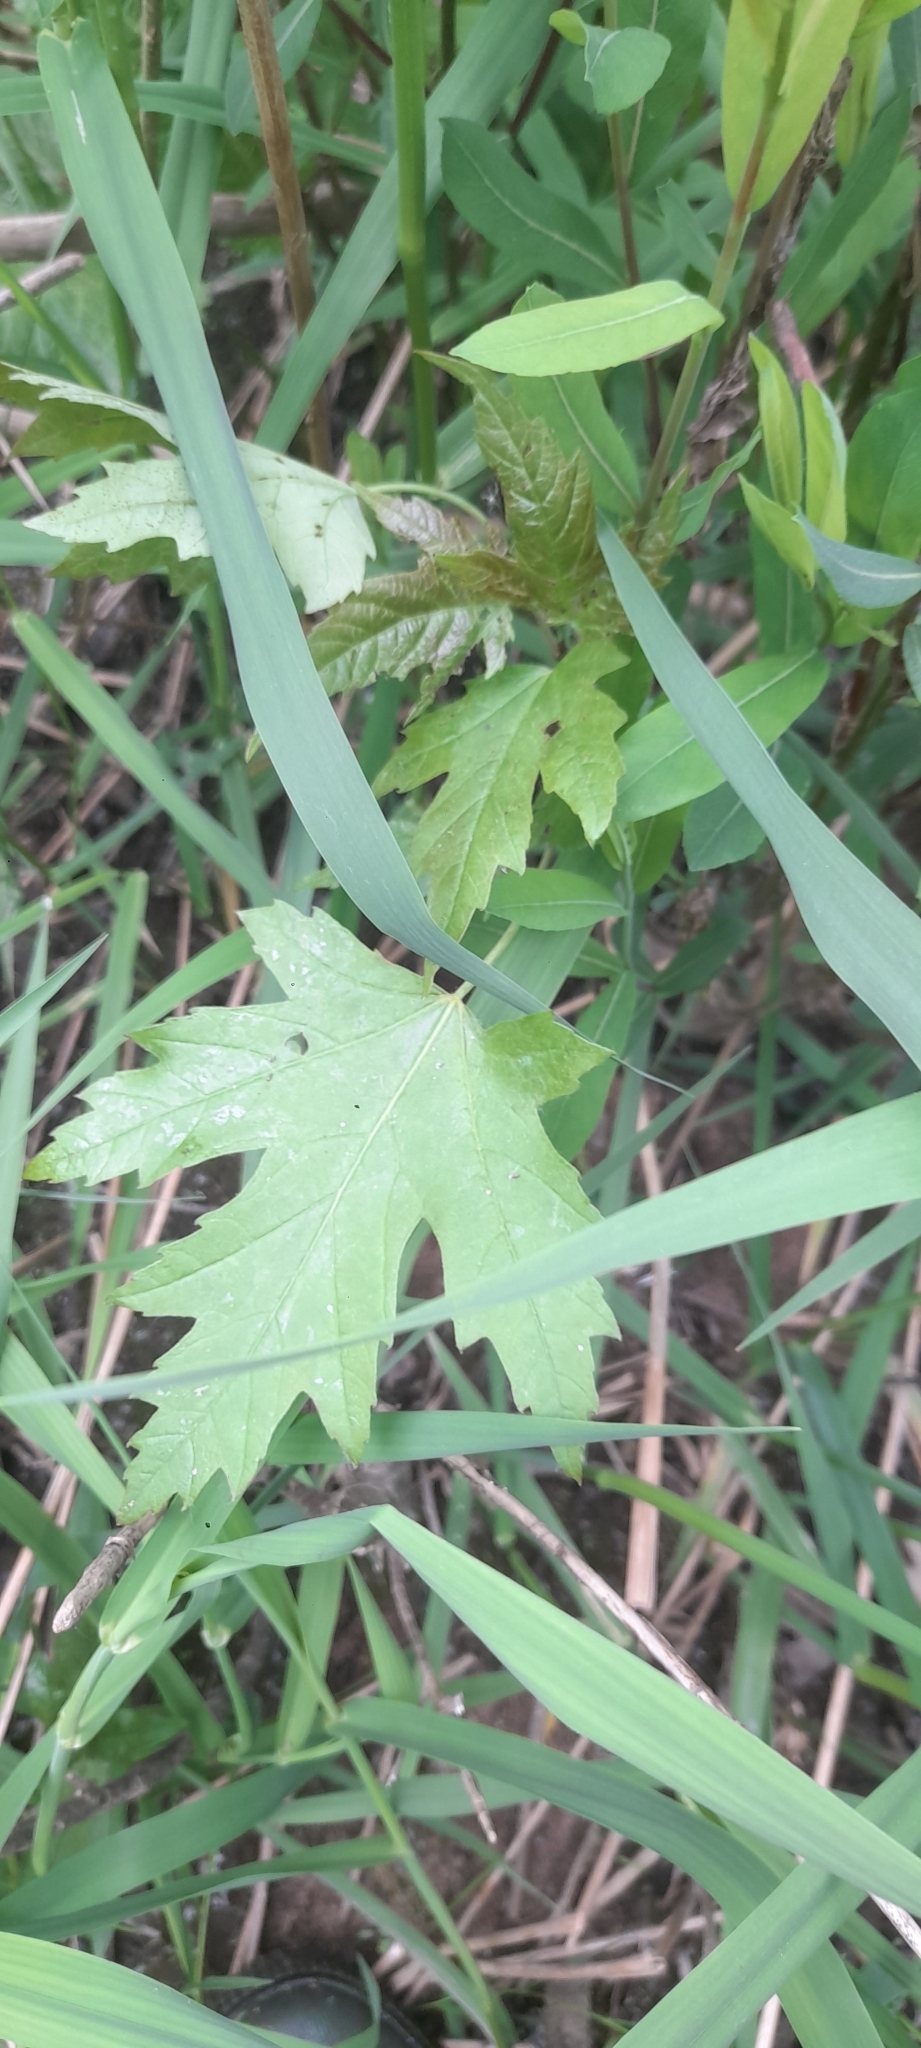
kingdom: Plantae
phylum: Tracheophyta
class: Magnoliopsida
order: Sapindales
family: Sapindaceae
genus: Acer
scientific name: Acer saccharinum
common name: Silver maple
